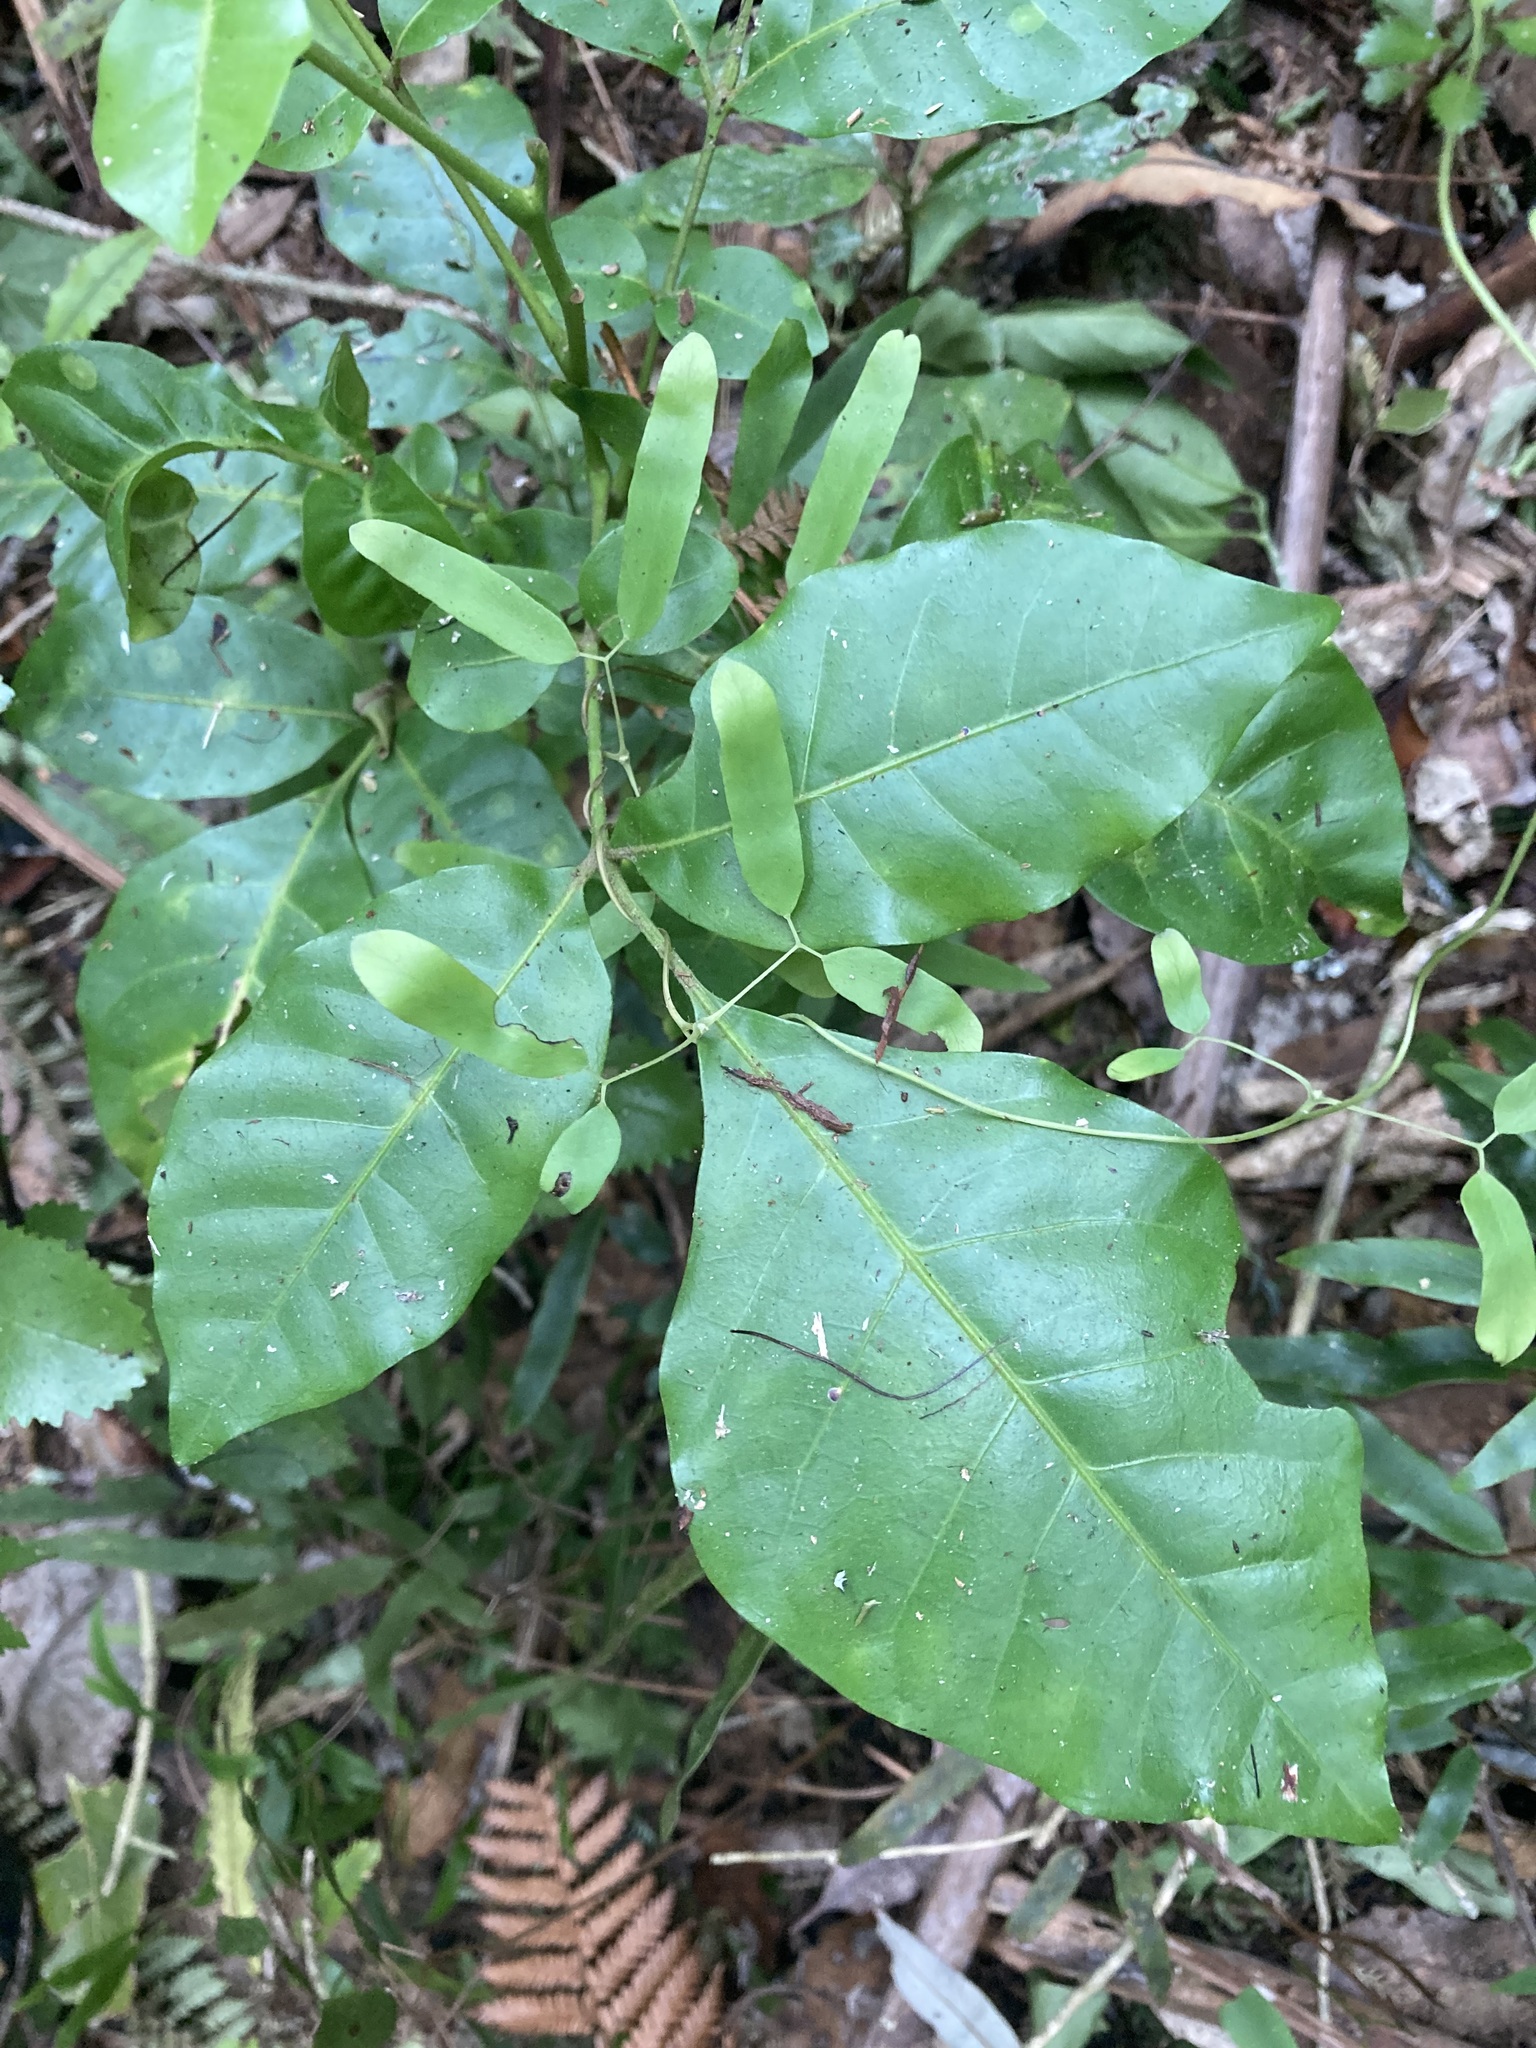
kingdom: Plantae
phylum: Tracheophyta
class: Magnoliopsida
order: Sapindales
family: Meliaceae
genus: Didymocheton
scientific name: Didymocheton spectabilis
